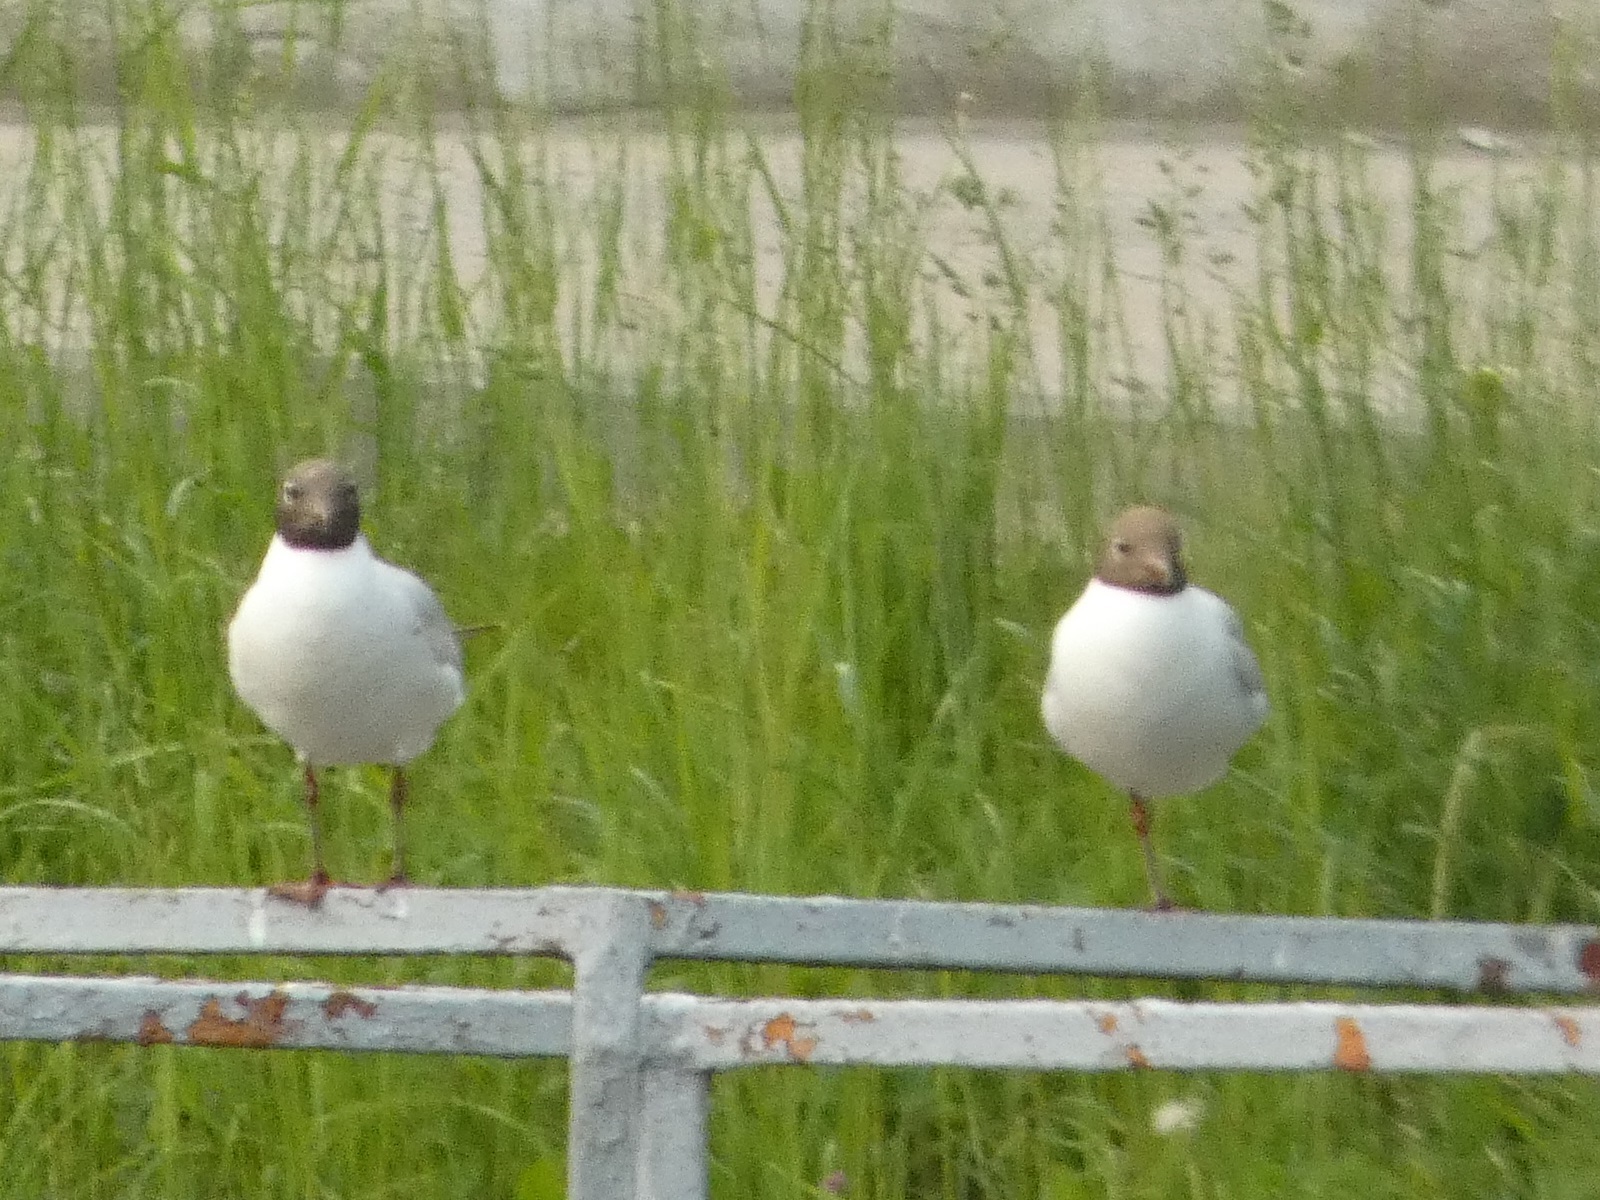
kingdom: Animalia
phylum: Chordata
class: Aves
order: Charadriiformes
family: Laridae
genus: Chroicocephalus
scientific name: Chroicocephalus ridibundus
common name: Black-headed gull
